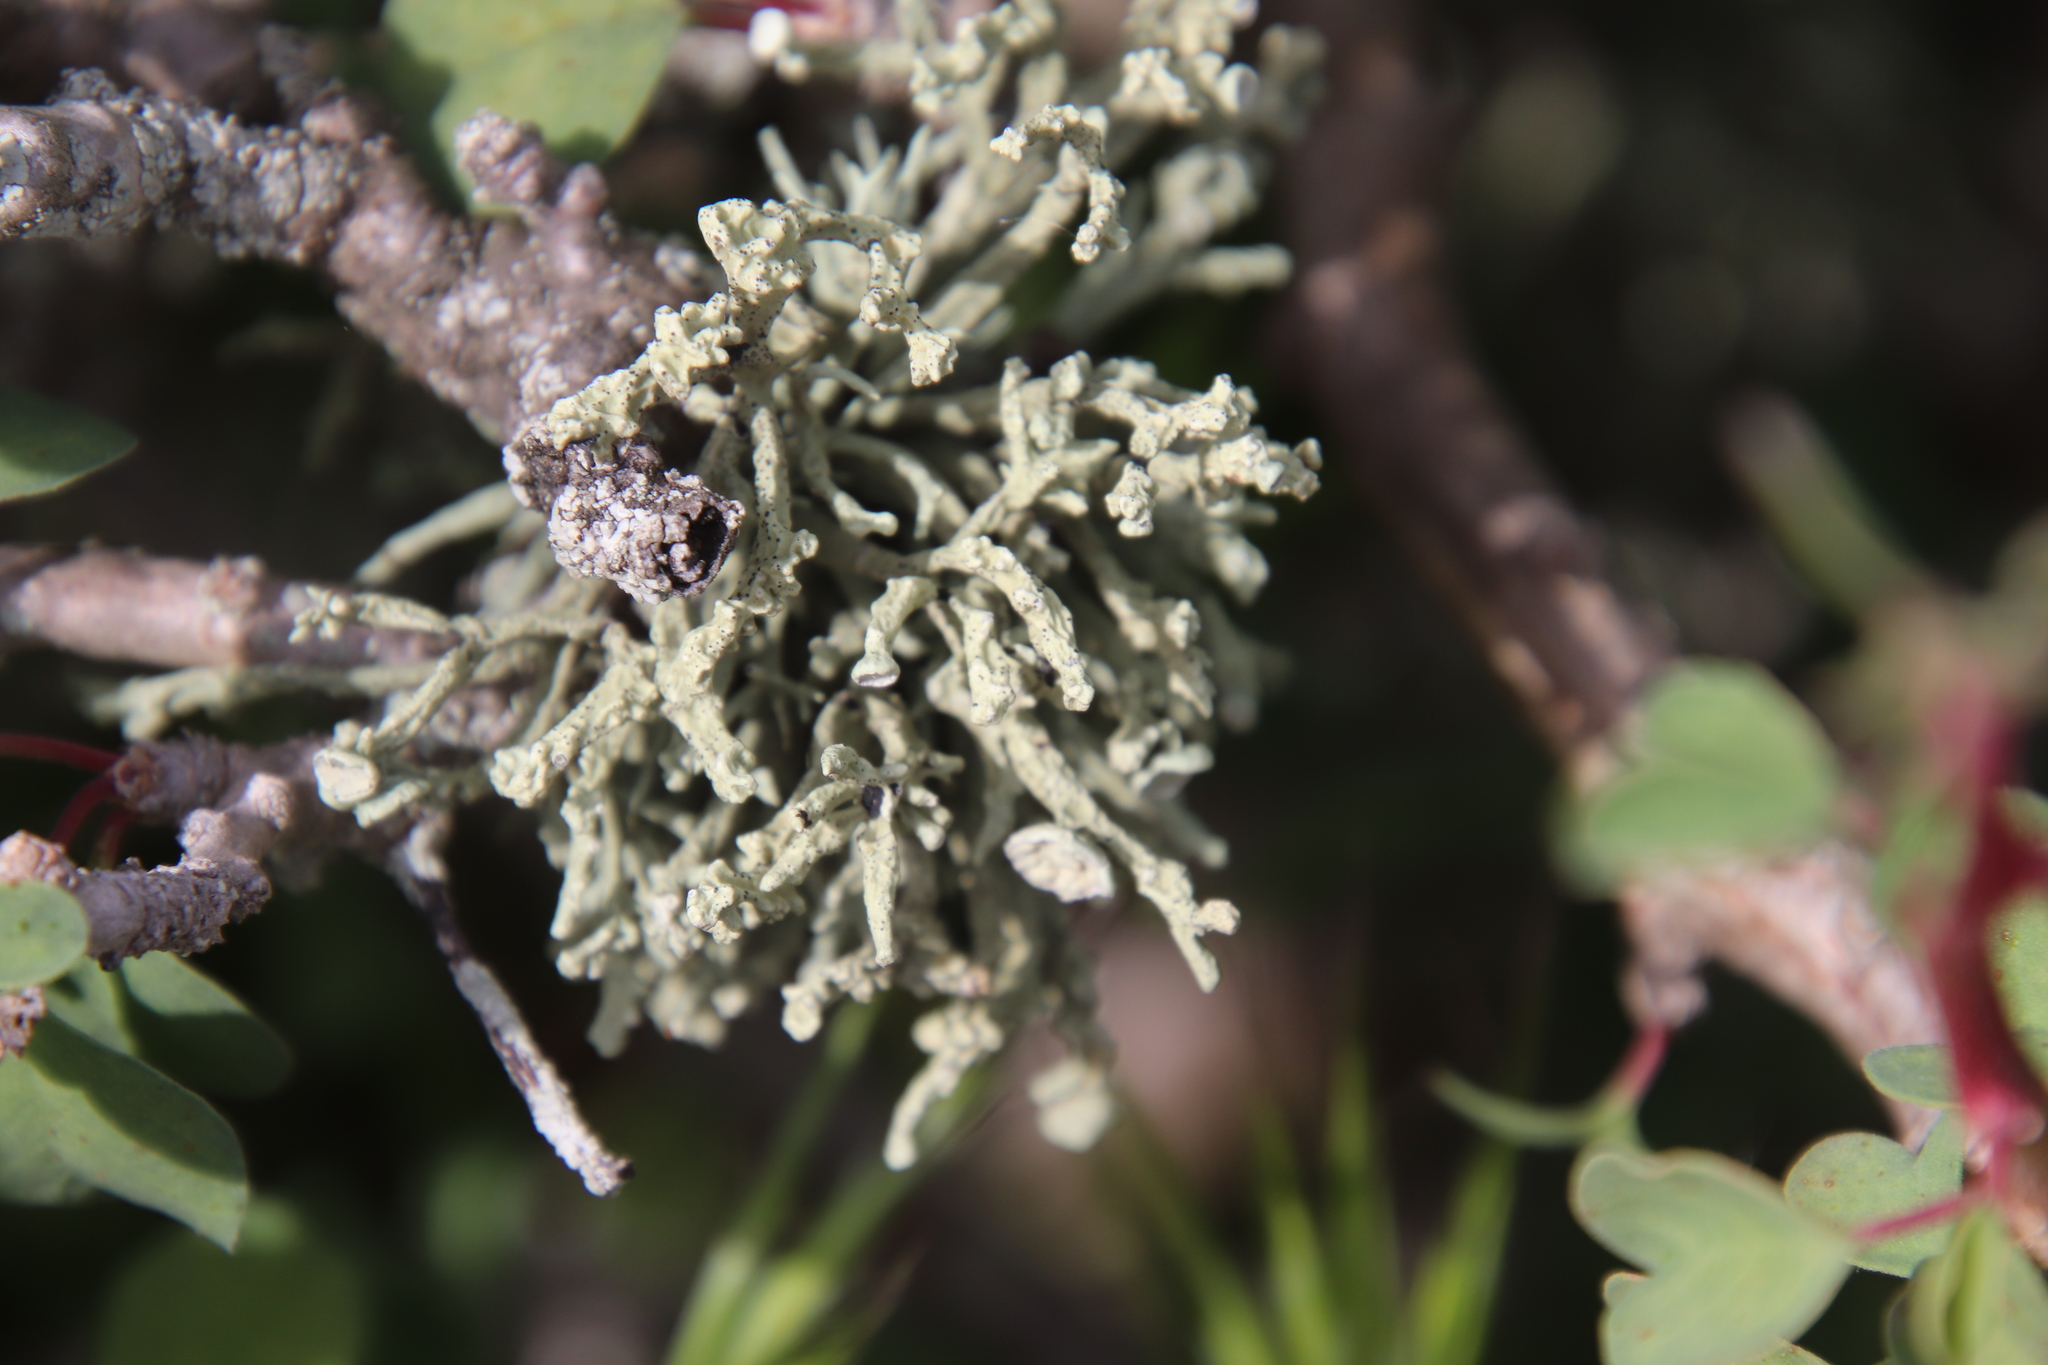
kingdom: Fungi
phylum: Ascomycota
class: Lecanoromycetes
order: Lecanorales
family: Ramalinaceae
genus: Niebla
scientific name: Niebla ceruchis
